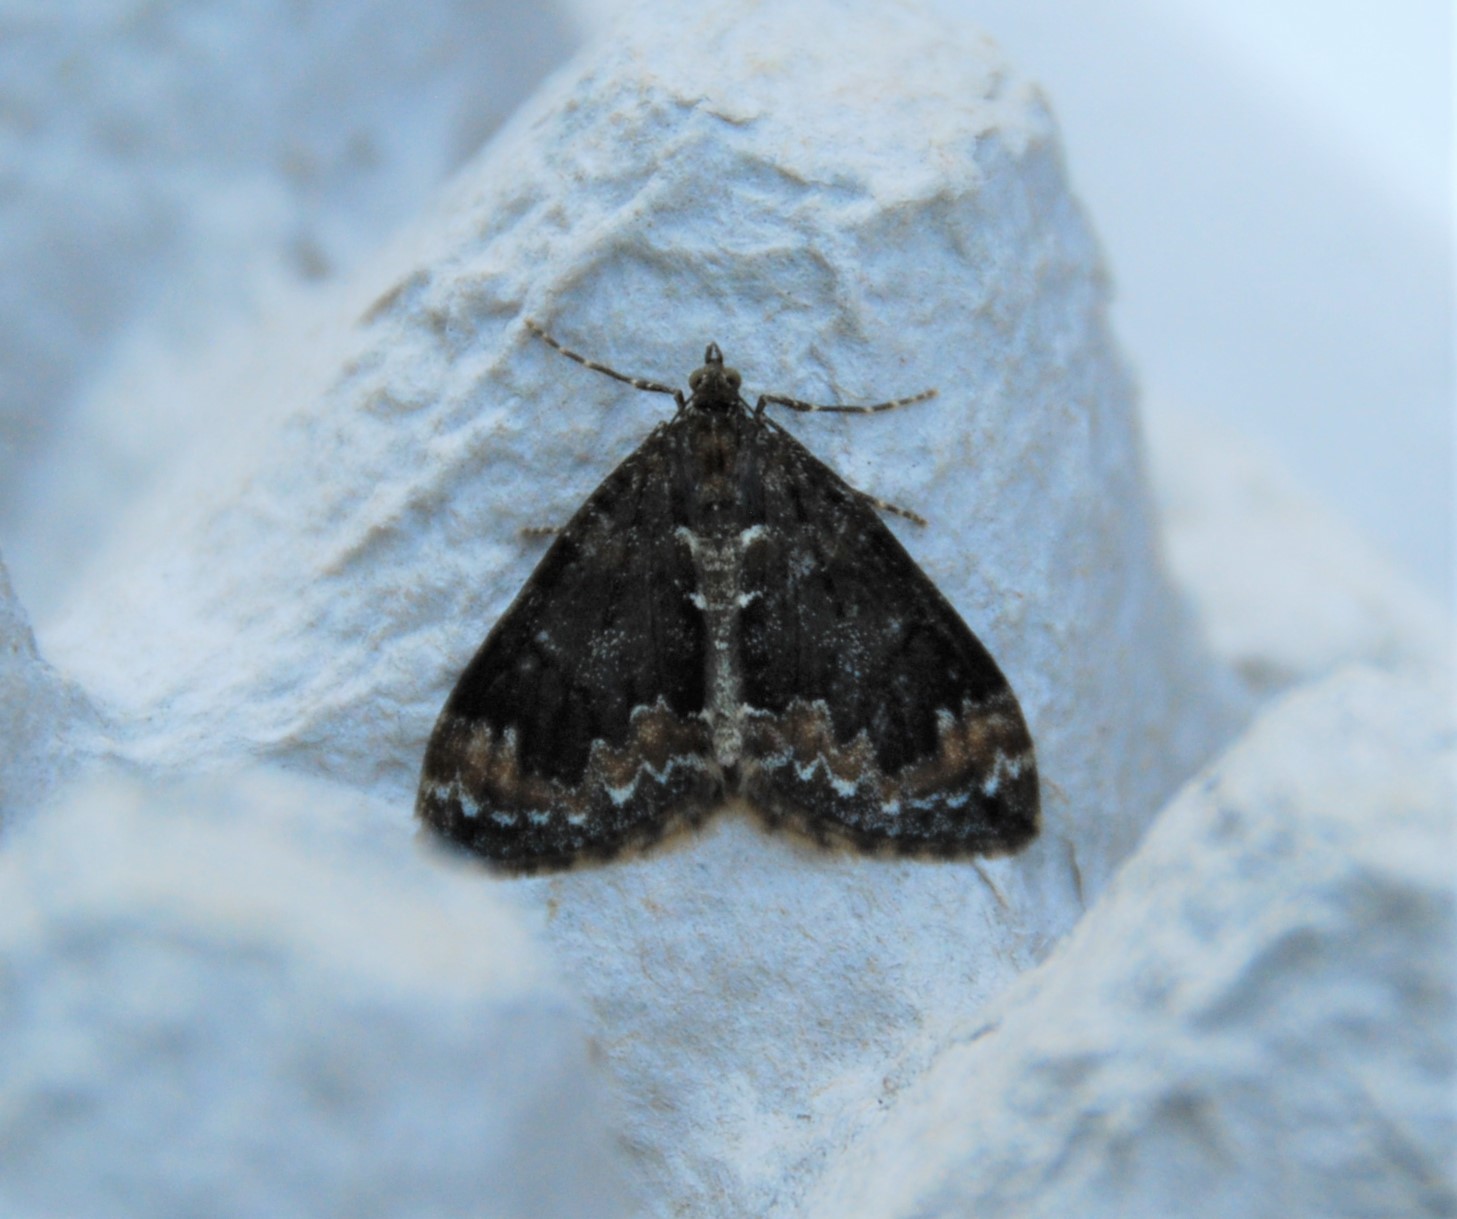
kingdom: Animalia
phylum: Arthropoda
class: Insecta
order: Lepidoptera
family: Geometridae
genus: Dysstroma
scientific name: Dysstroma truncata
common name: Common marbled carpet
